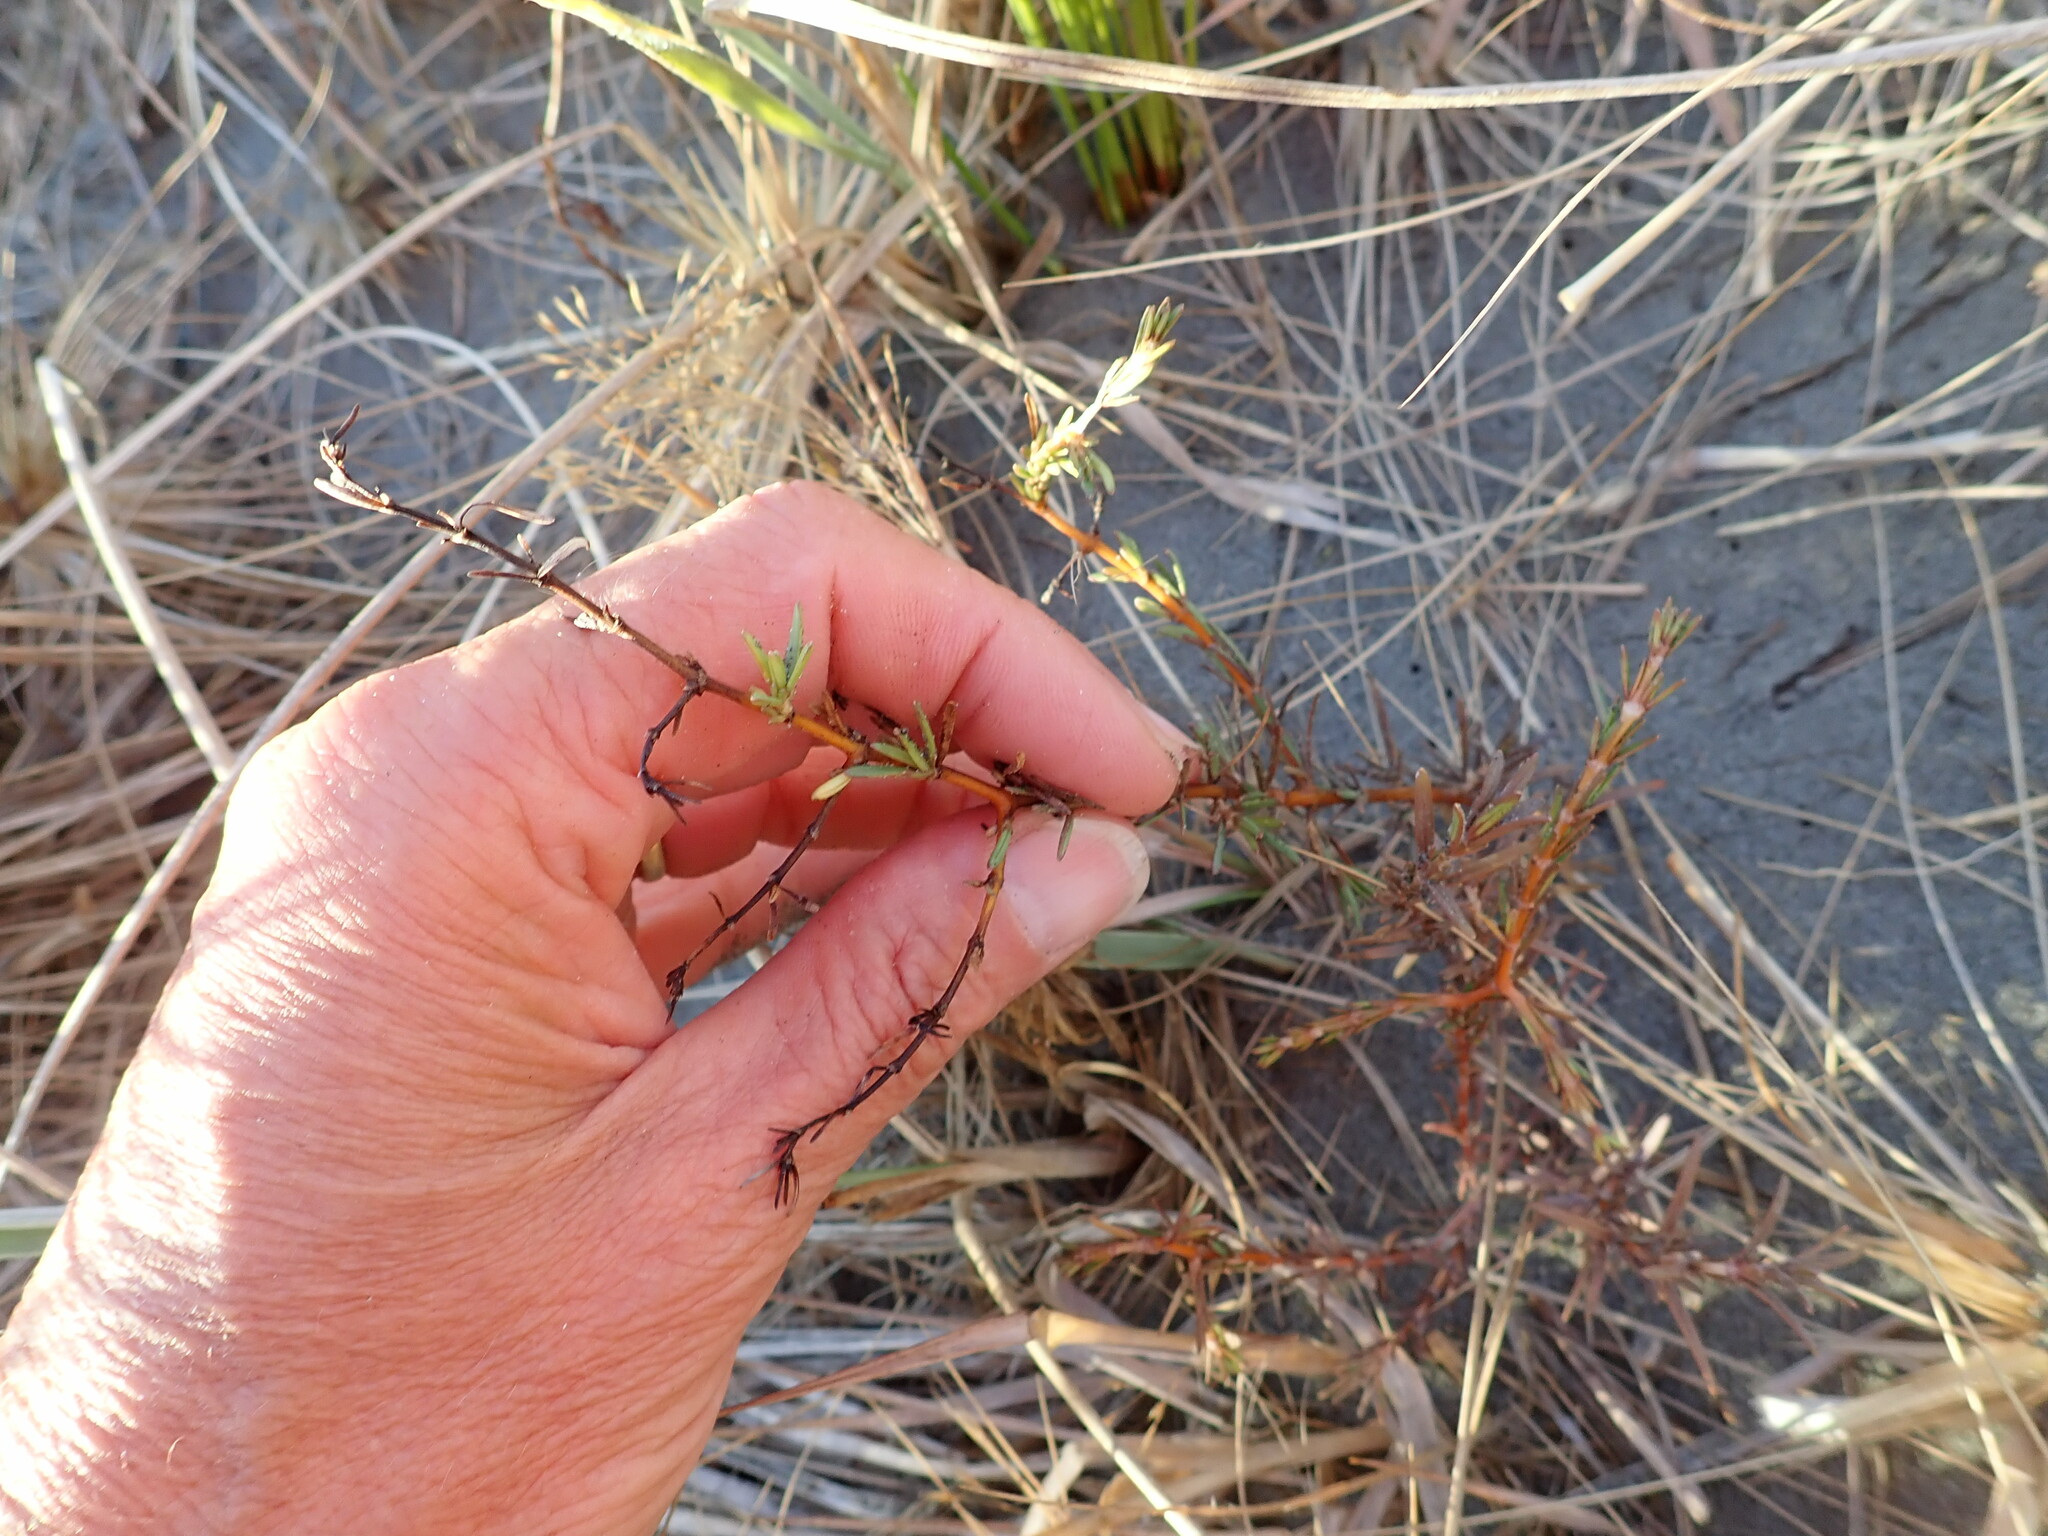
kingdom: Plantae
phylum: Tracheophyta
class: Magnoliopsida
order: Gentianales
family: Rubiaceae
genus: Coprosma
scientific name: Coprosma acerosa
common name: Sand coprosma
